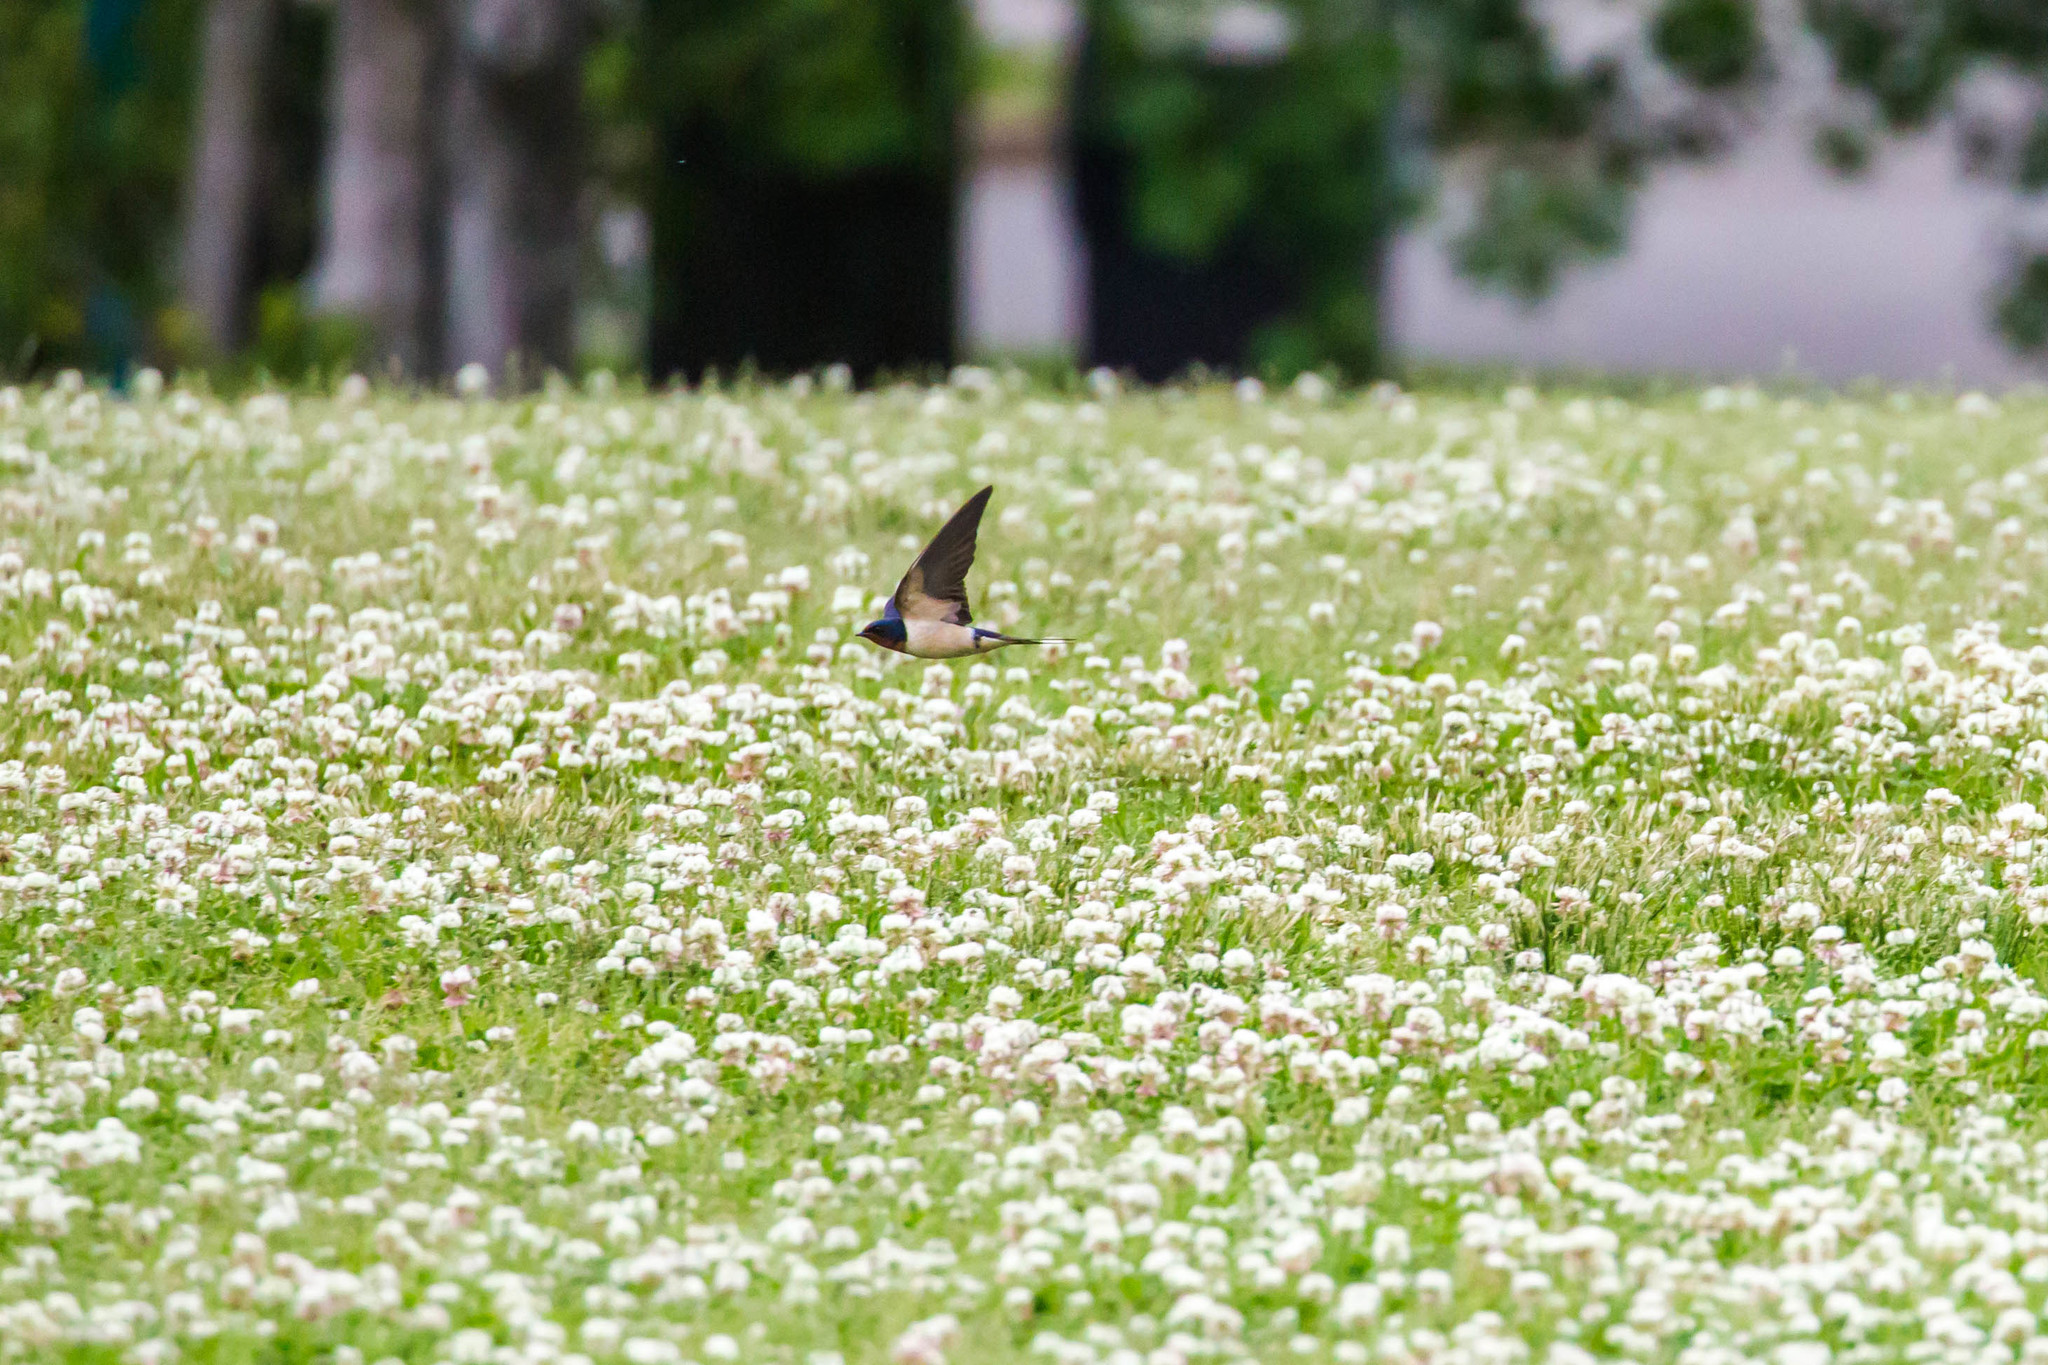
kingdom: Animalia
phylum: Chordata
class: Aves
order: Passeriformes
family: Hirundinidae
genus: Hirundo
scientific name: Hirundo rustica
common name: Barn swallow
